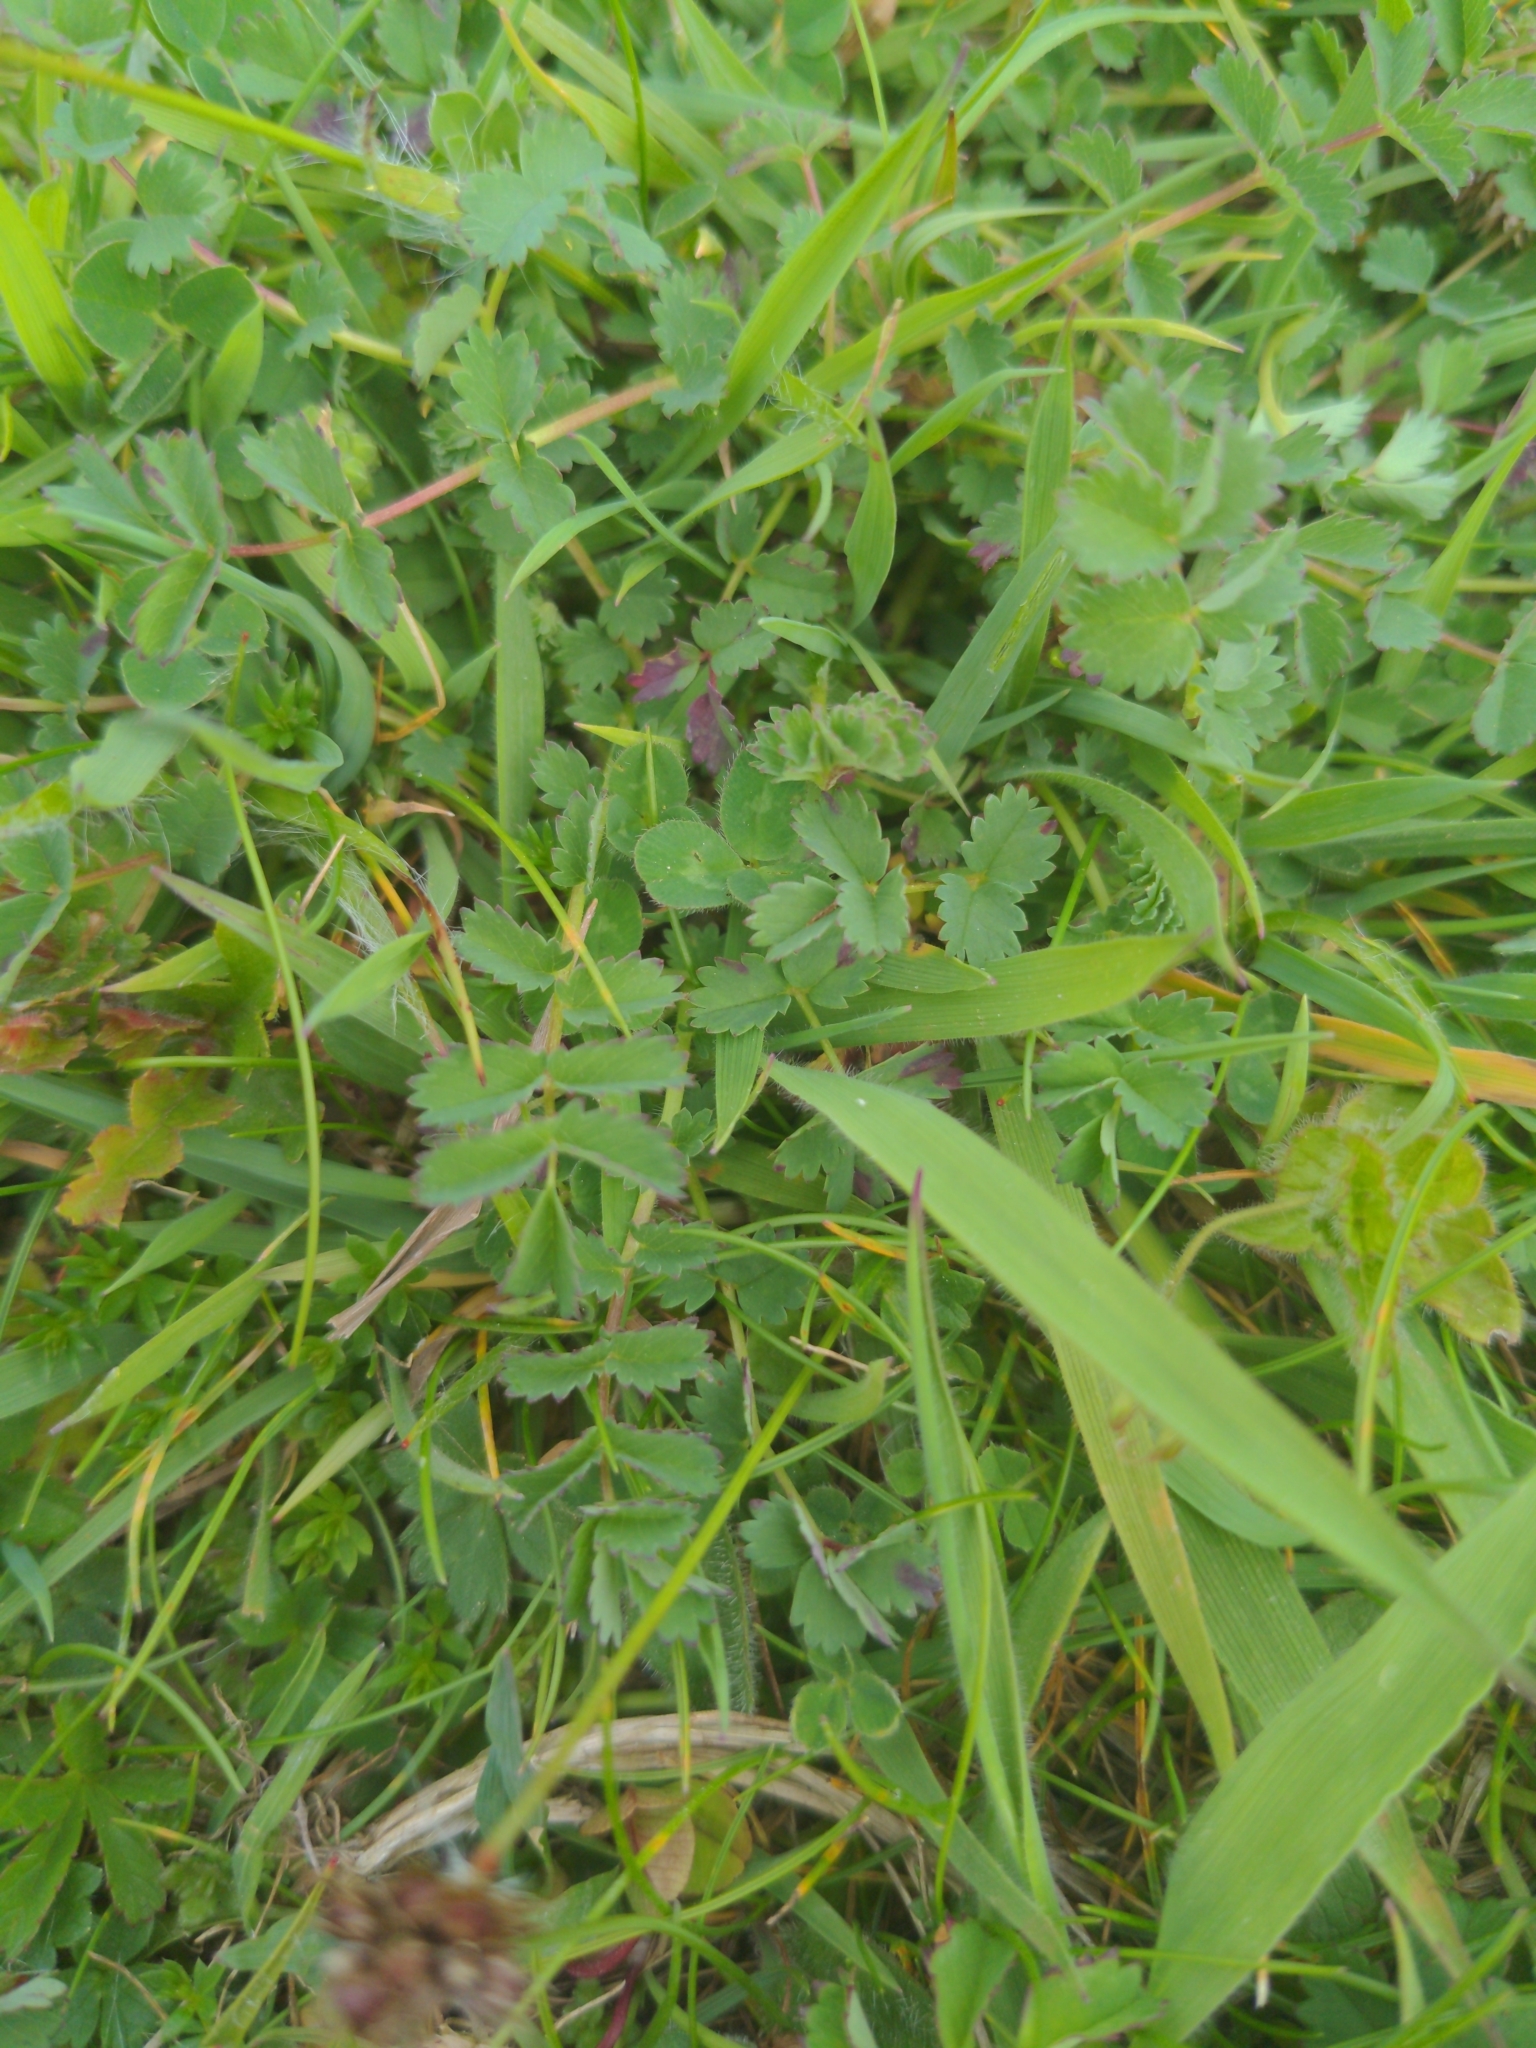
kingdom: Plantae
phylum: Tracheophyta
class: Magnoliopsida
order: Rosales
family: Rosaceae
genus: Poterium
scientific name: Poterium sanguisorba
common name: Salad burnet
